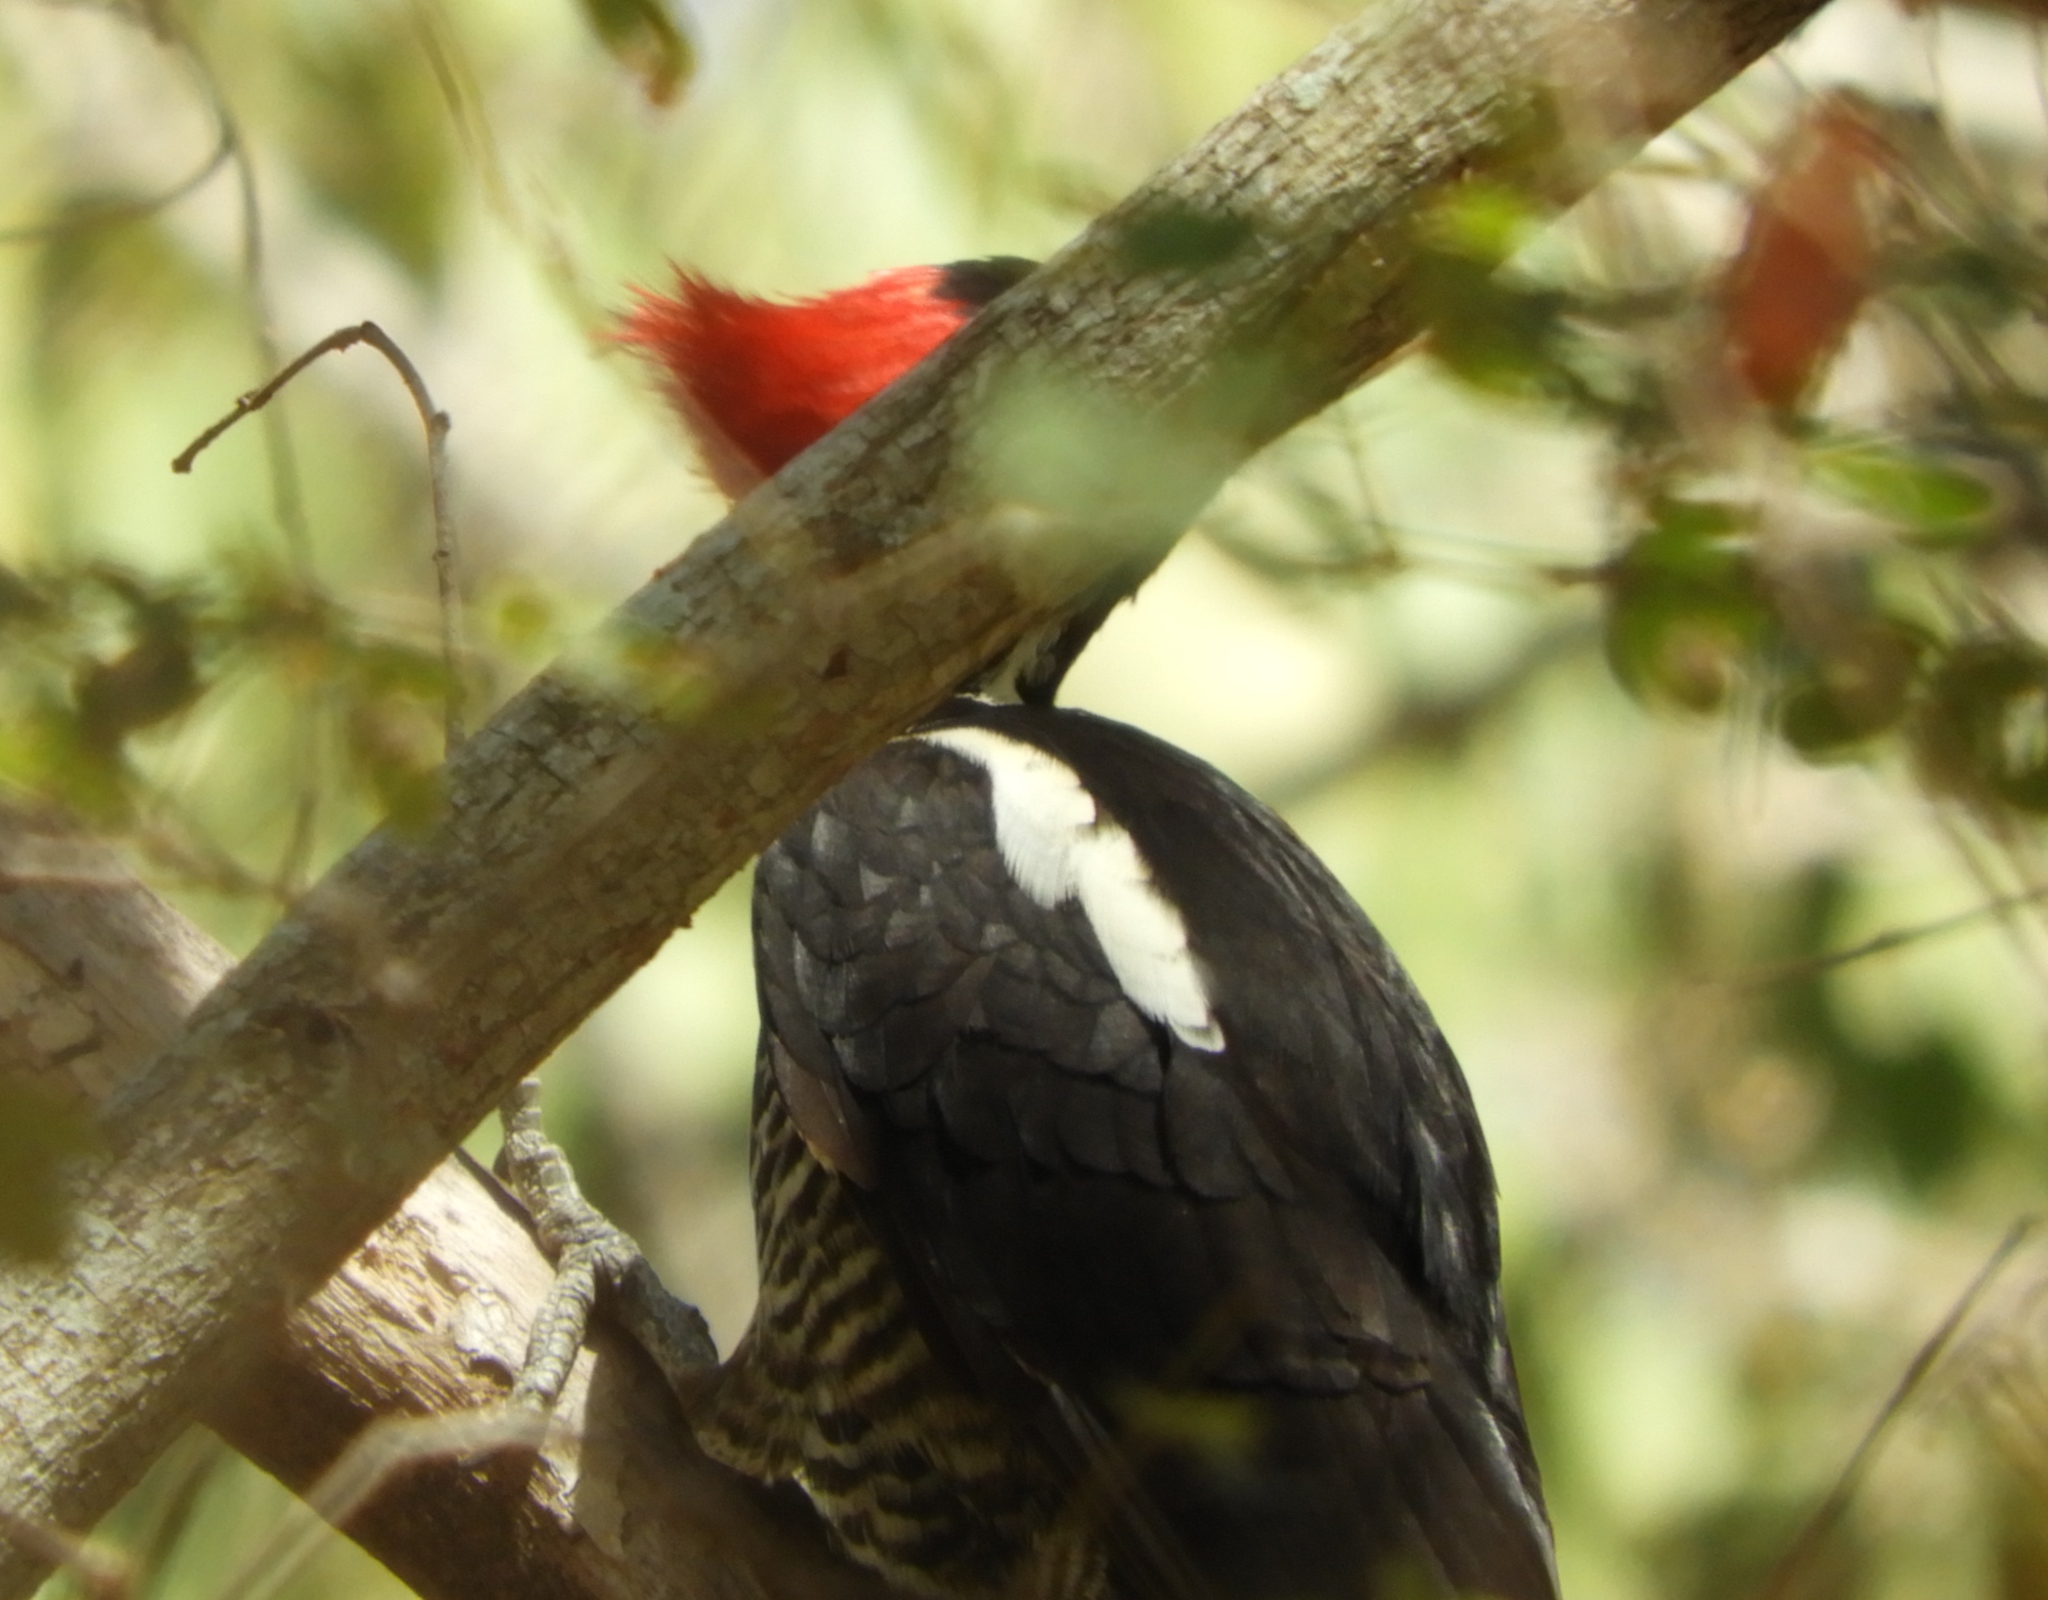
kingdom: Animalia
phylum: Chordata
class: Aves
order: Piciformes
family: Picidae
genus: Dryocopus
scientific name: Dryocopus lineatus
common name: Lineated woodpecker
